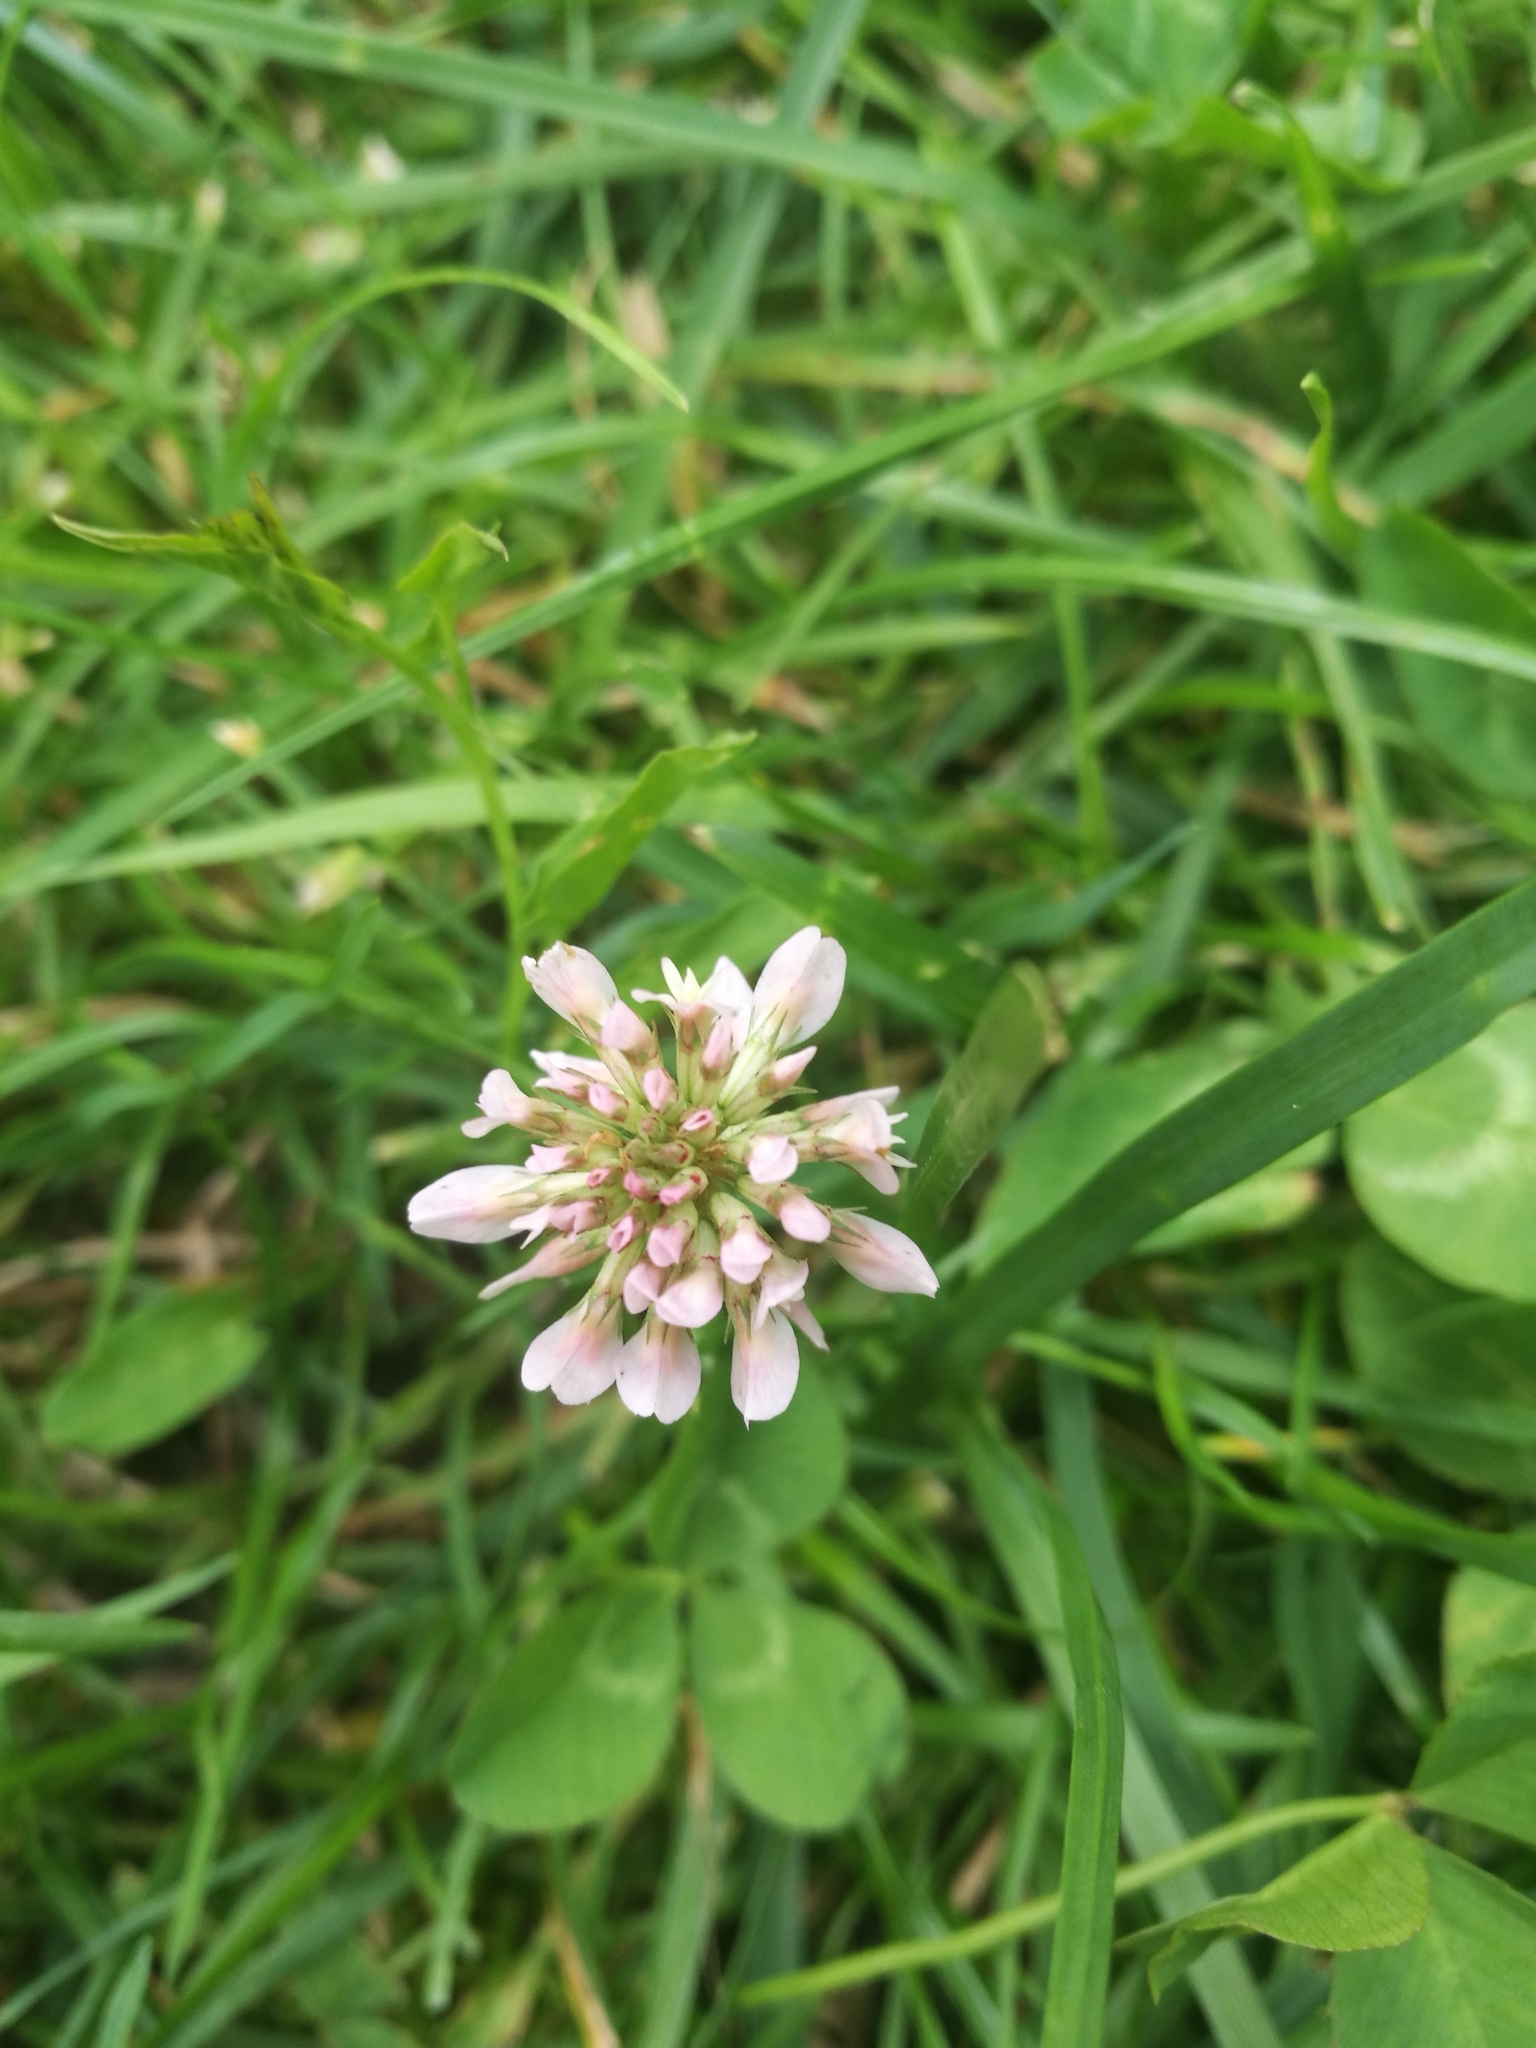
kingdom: Plantae
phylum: Tracheophyta
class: Magnoliopsida
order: Fabales
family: Fabaceae
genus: Trifolium
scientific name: Trifolium repens
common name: White clover
